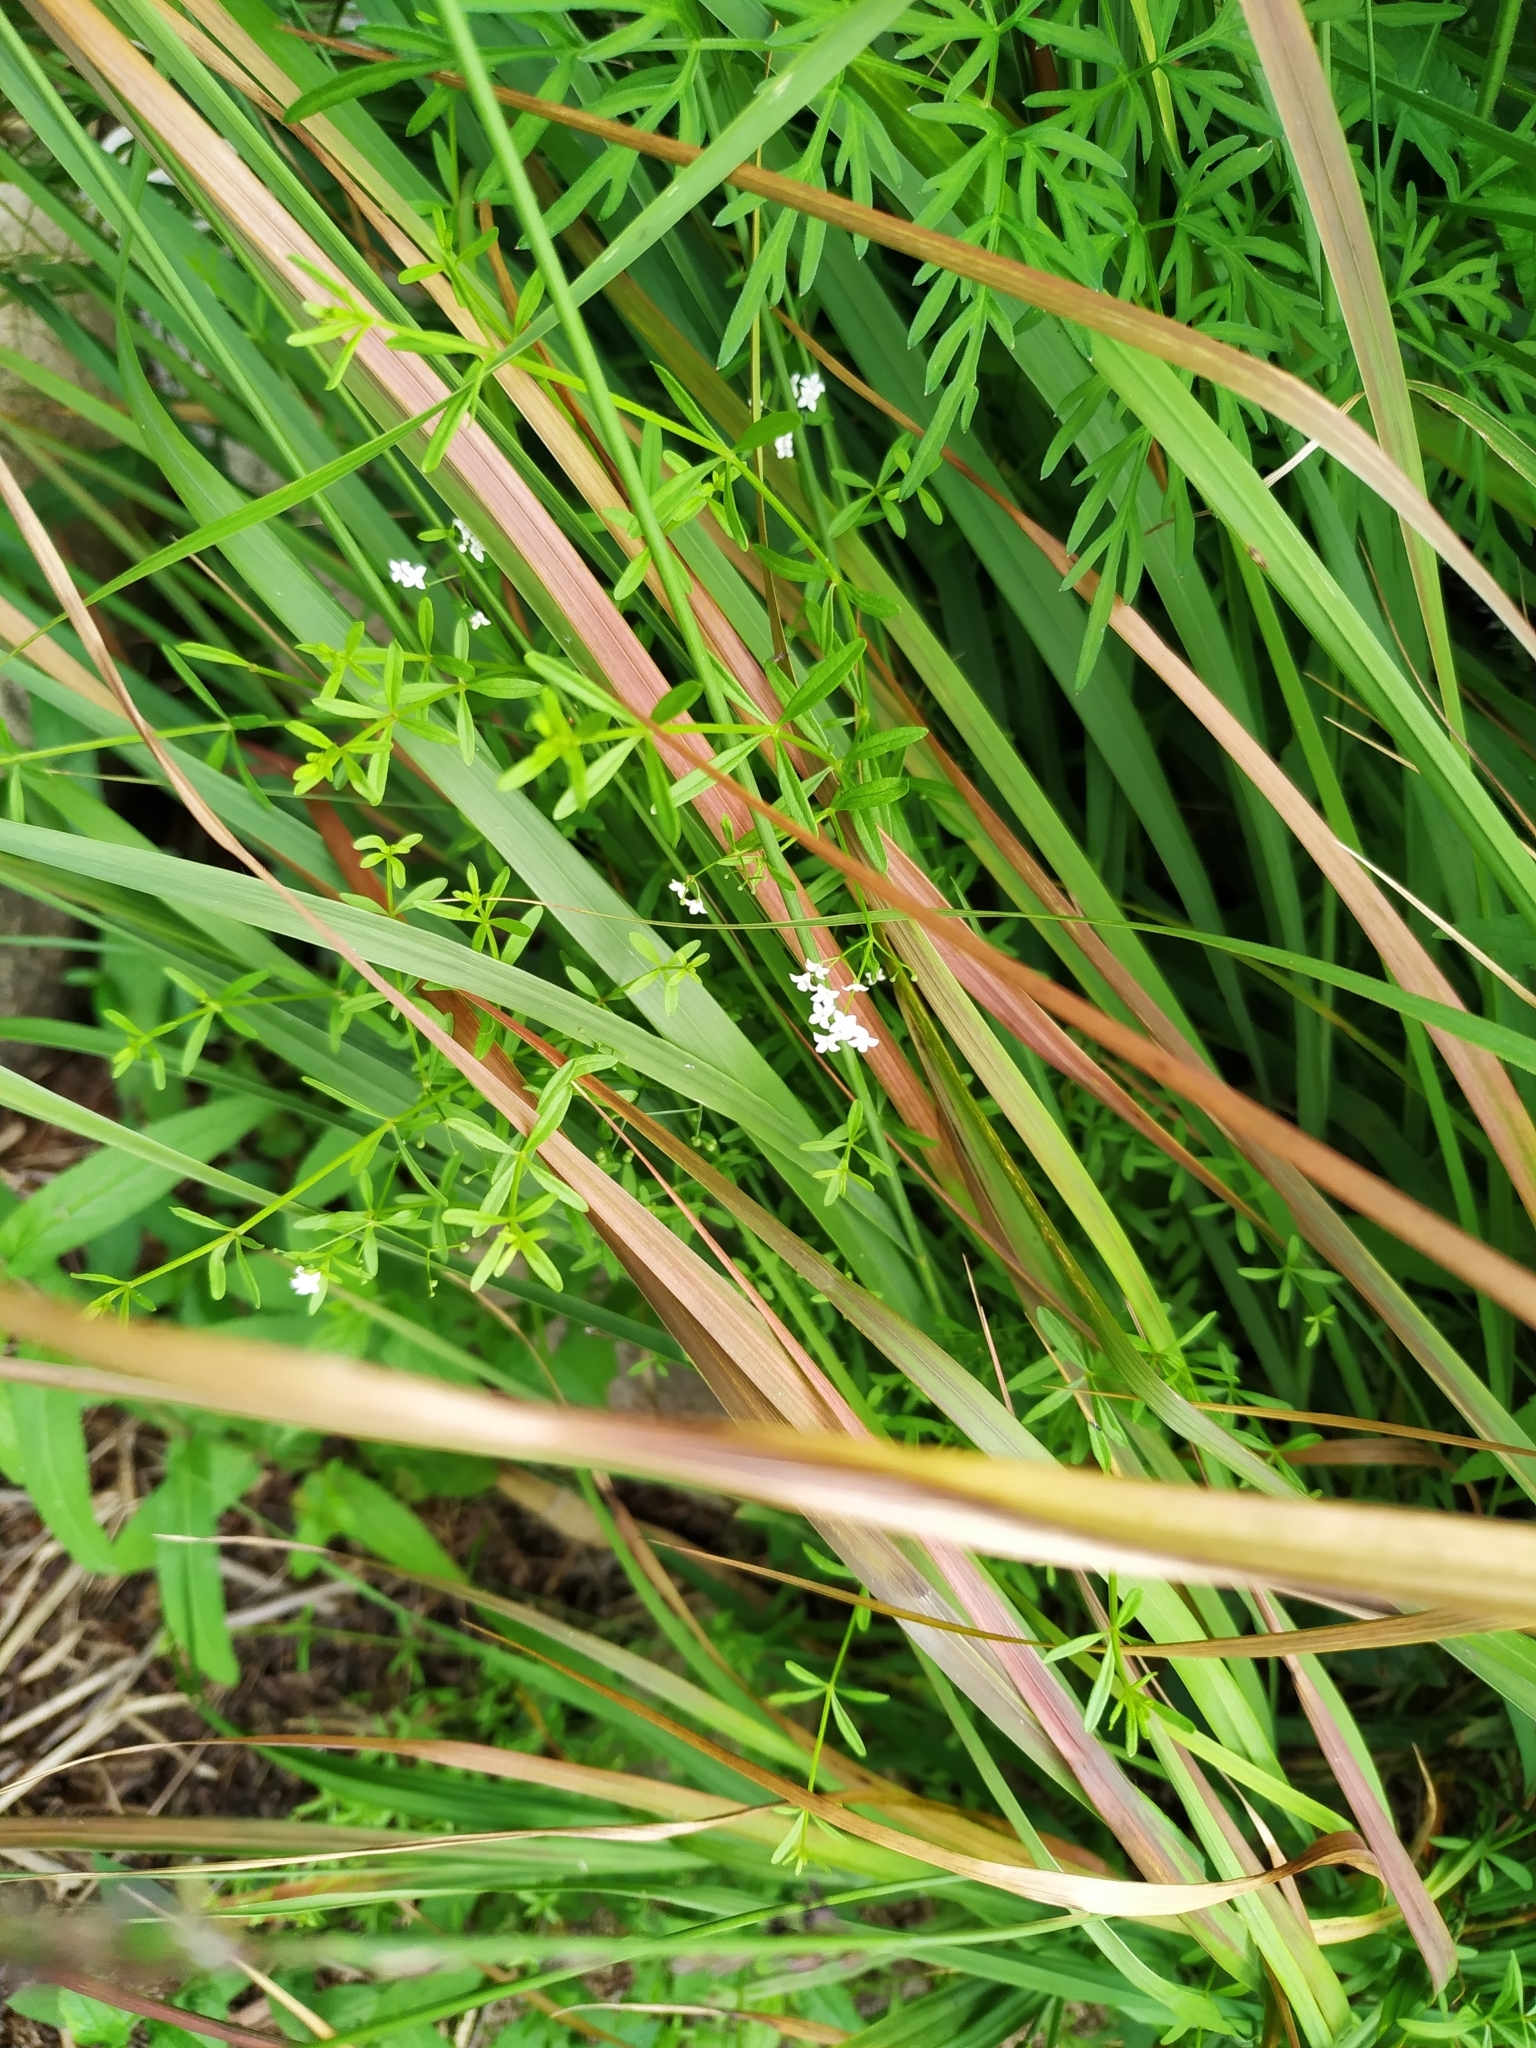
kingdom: Plantae
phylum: Tracheophyta
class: Magnoliopsida
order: Gentianales
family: Rubiaceae
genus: Galium
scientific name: Galium palustre
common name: Common marsh-bedstraw
